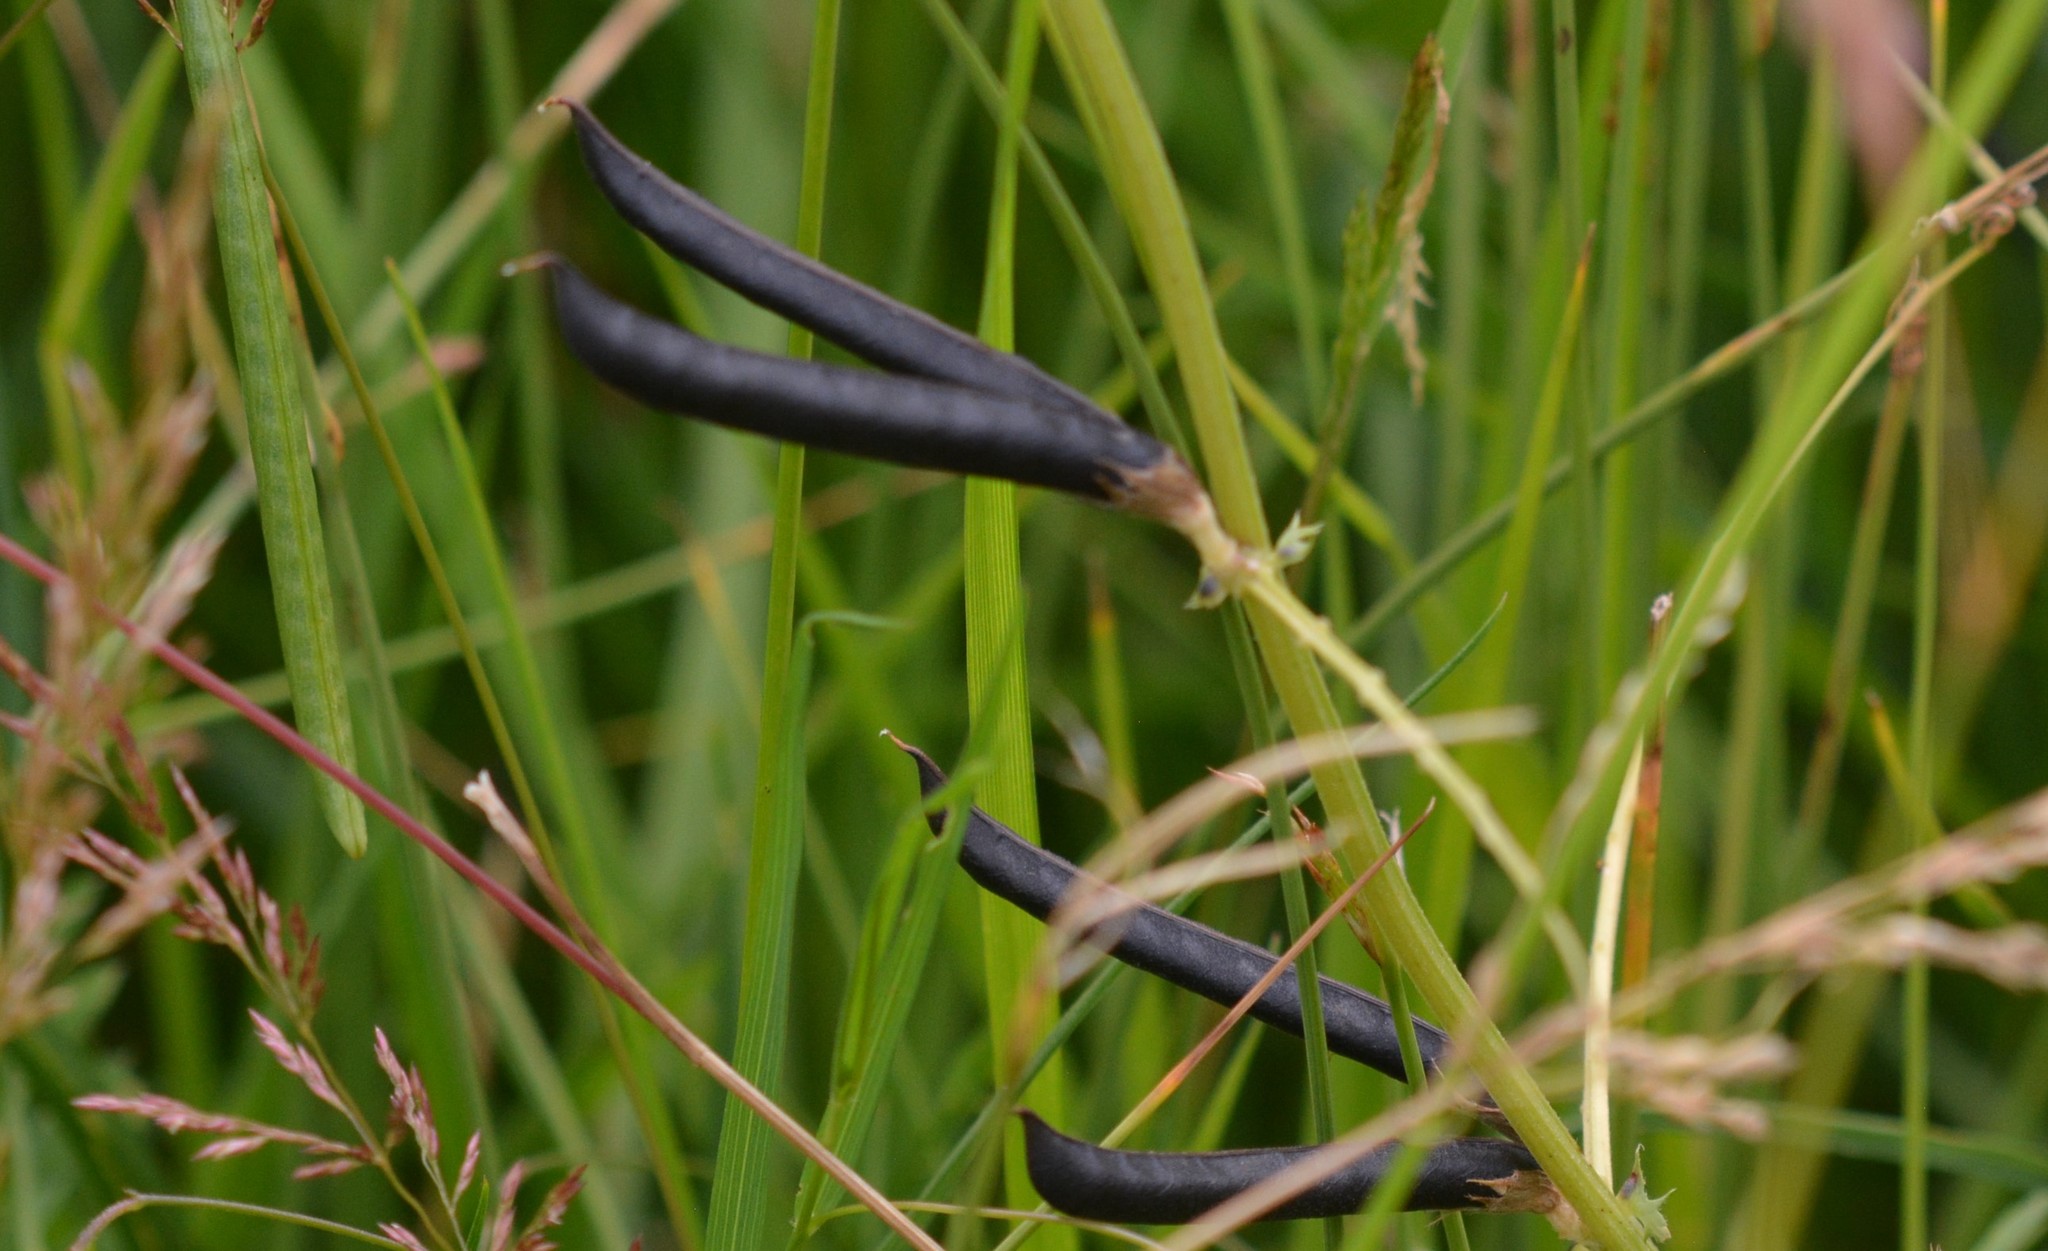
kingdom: Plantae
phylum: Tracheophyta
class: Magnoliopsida
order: Fabales
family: Fabaceae
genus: Lathyrus
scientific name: Lathyrus pratensis
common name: Meadow vetchling
